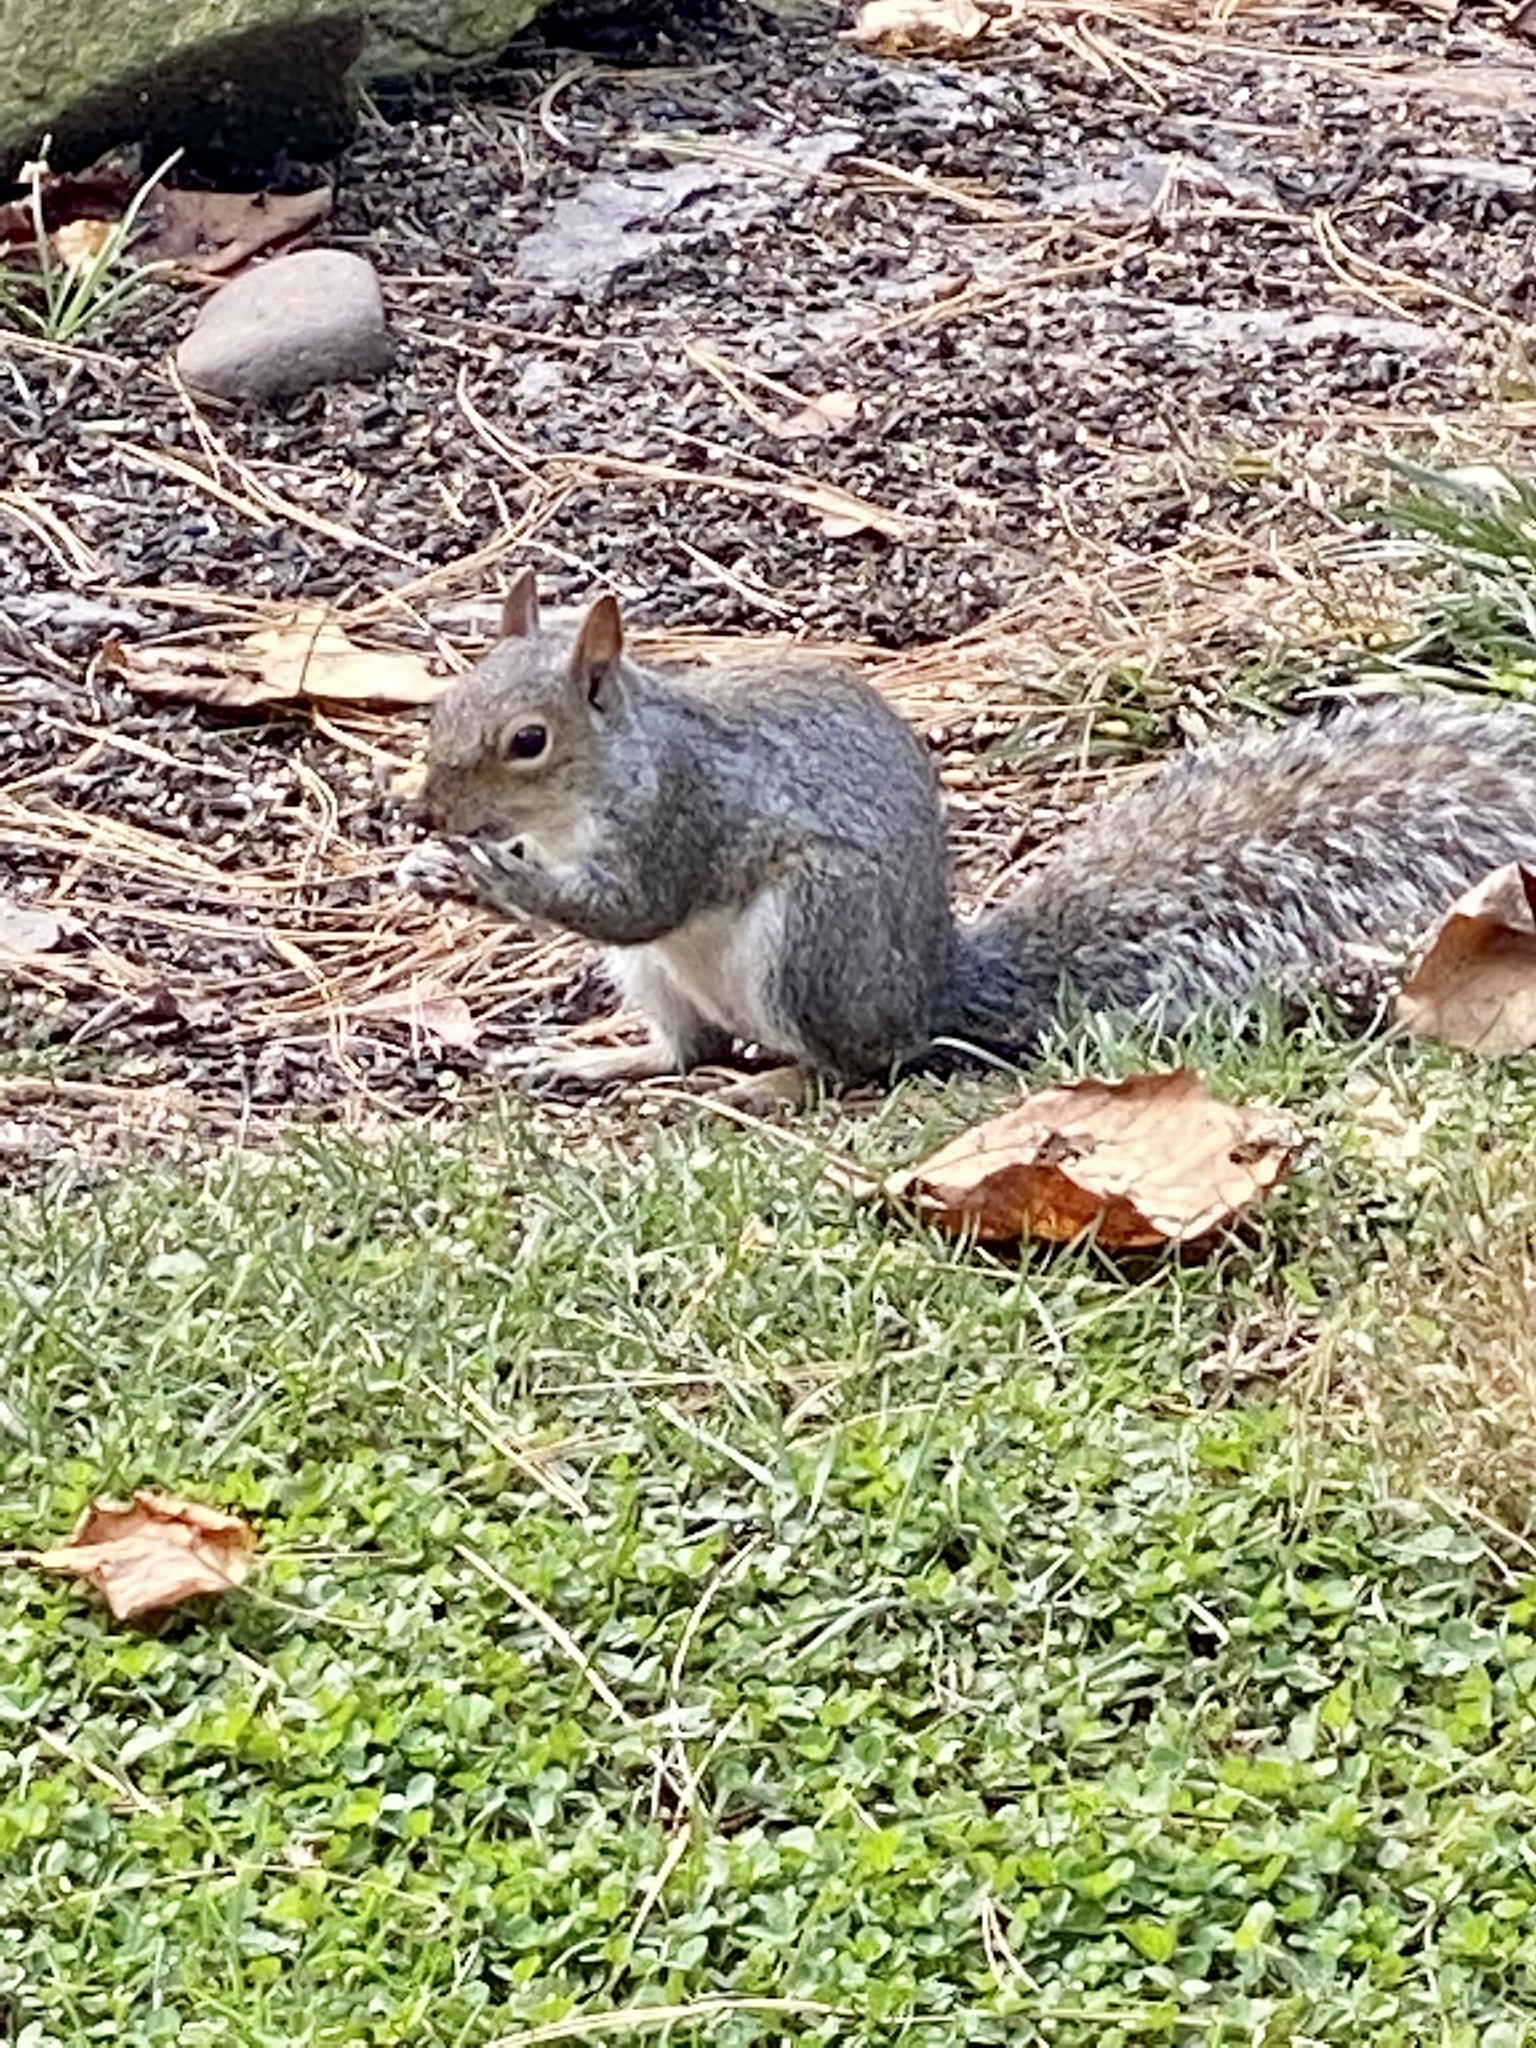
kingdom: Animalia
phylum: Chordata
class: Mammalia
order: Rodentia
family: Sciuridae
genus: Sciurus
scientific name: Sciurus carolinensis
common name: Eastern gray squirrel
